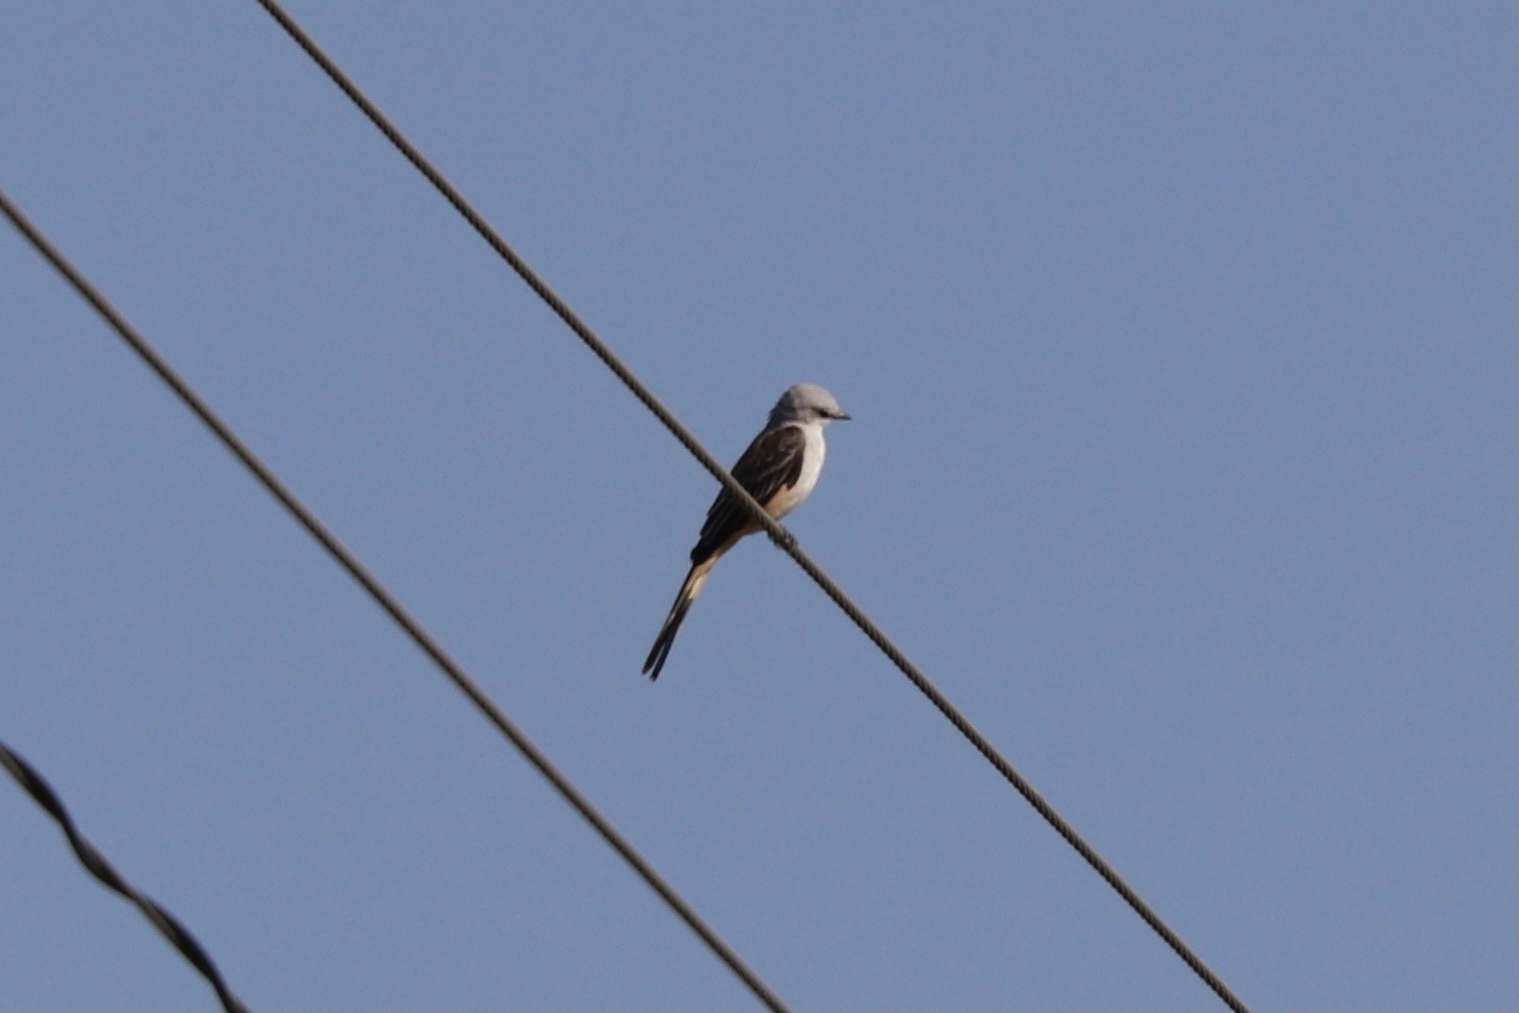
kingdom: Animalia
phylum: Chordata
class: Aves
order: Passeriformes
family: Tyrannidae
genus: Tyrannus
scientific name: Tyrannus forficatus
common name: Scissor-tailed flycatcher
